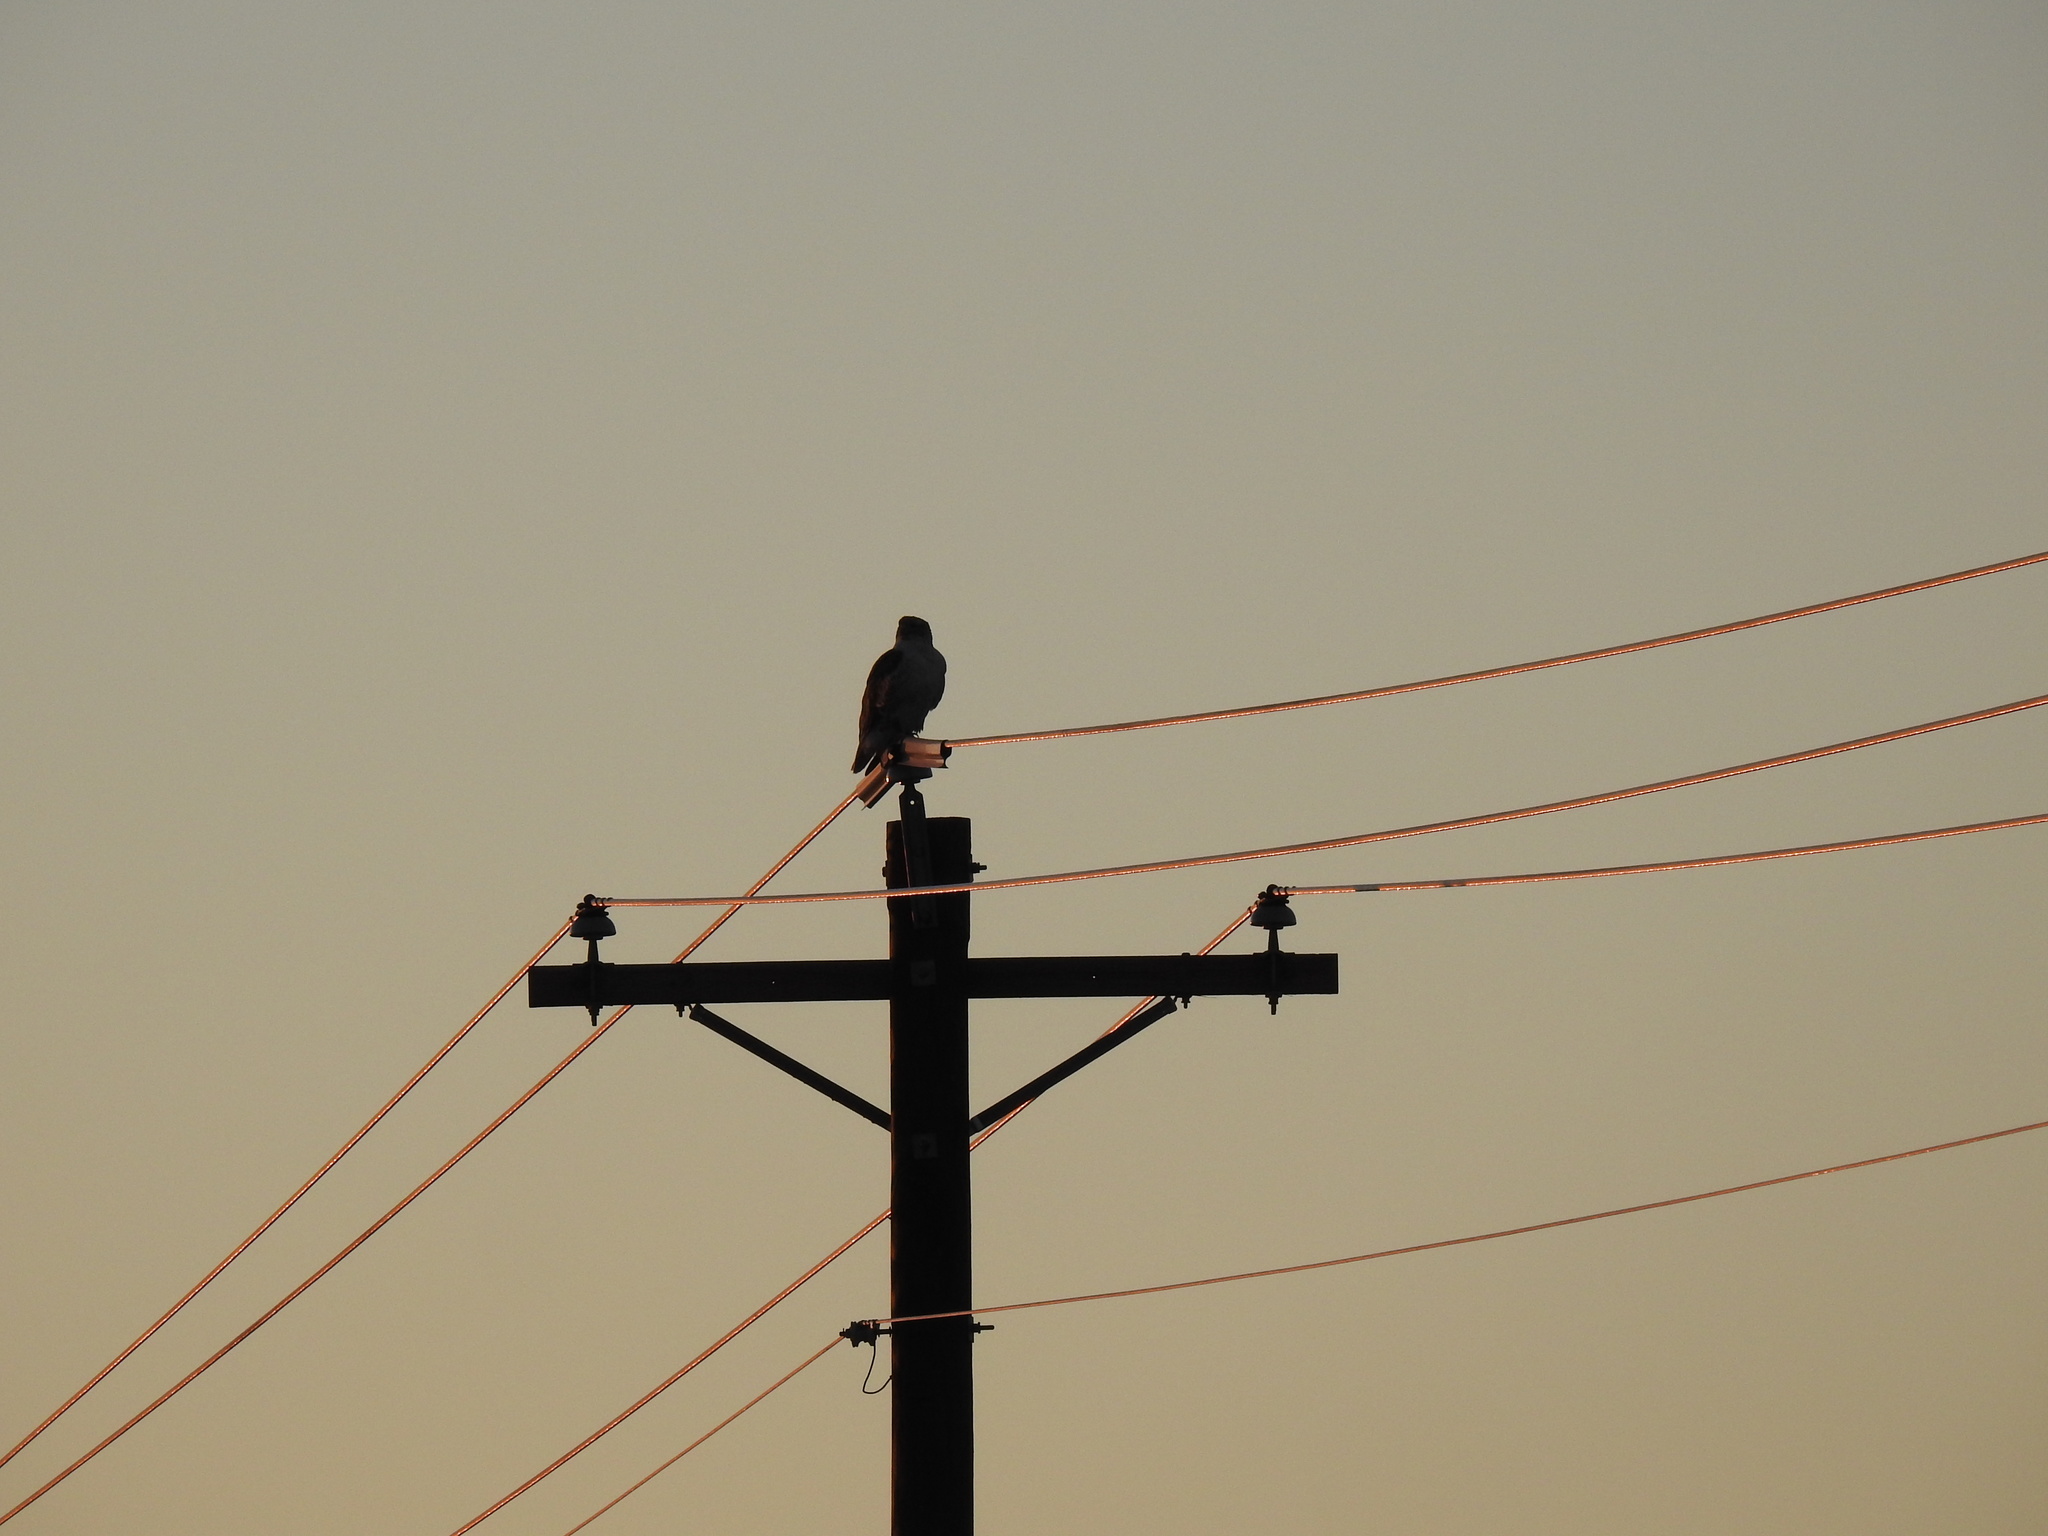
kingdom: Animalia
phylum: Chordata
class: Aves
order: Accipitriformes
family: Accipitridae
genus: Buteo
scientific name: Buteo regalis
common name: Ferruginous hawk
